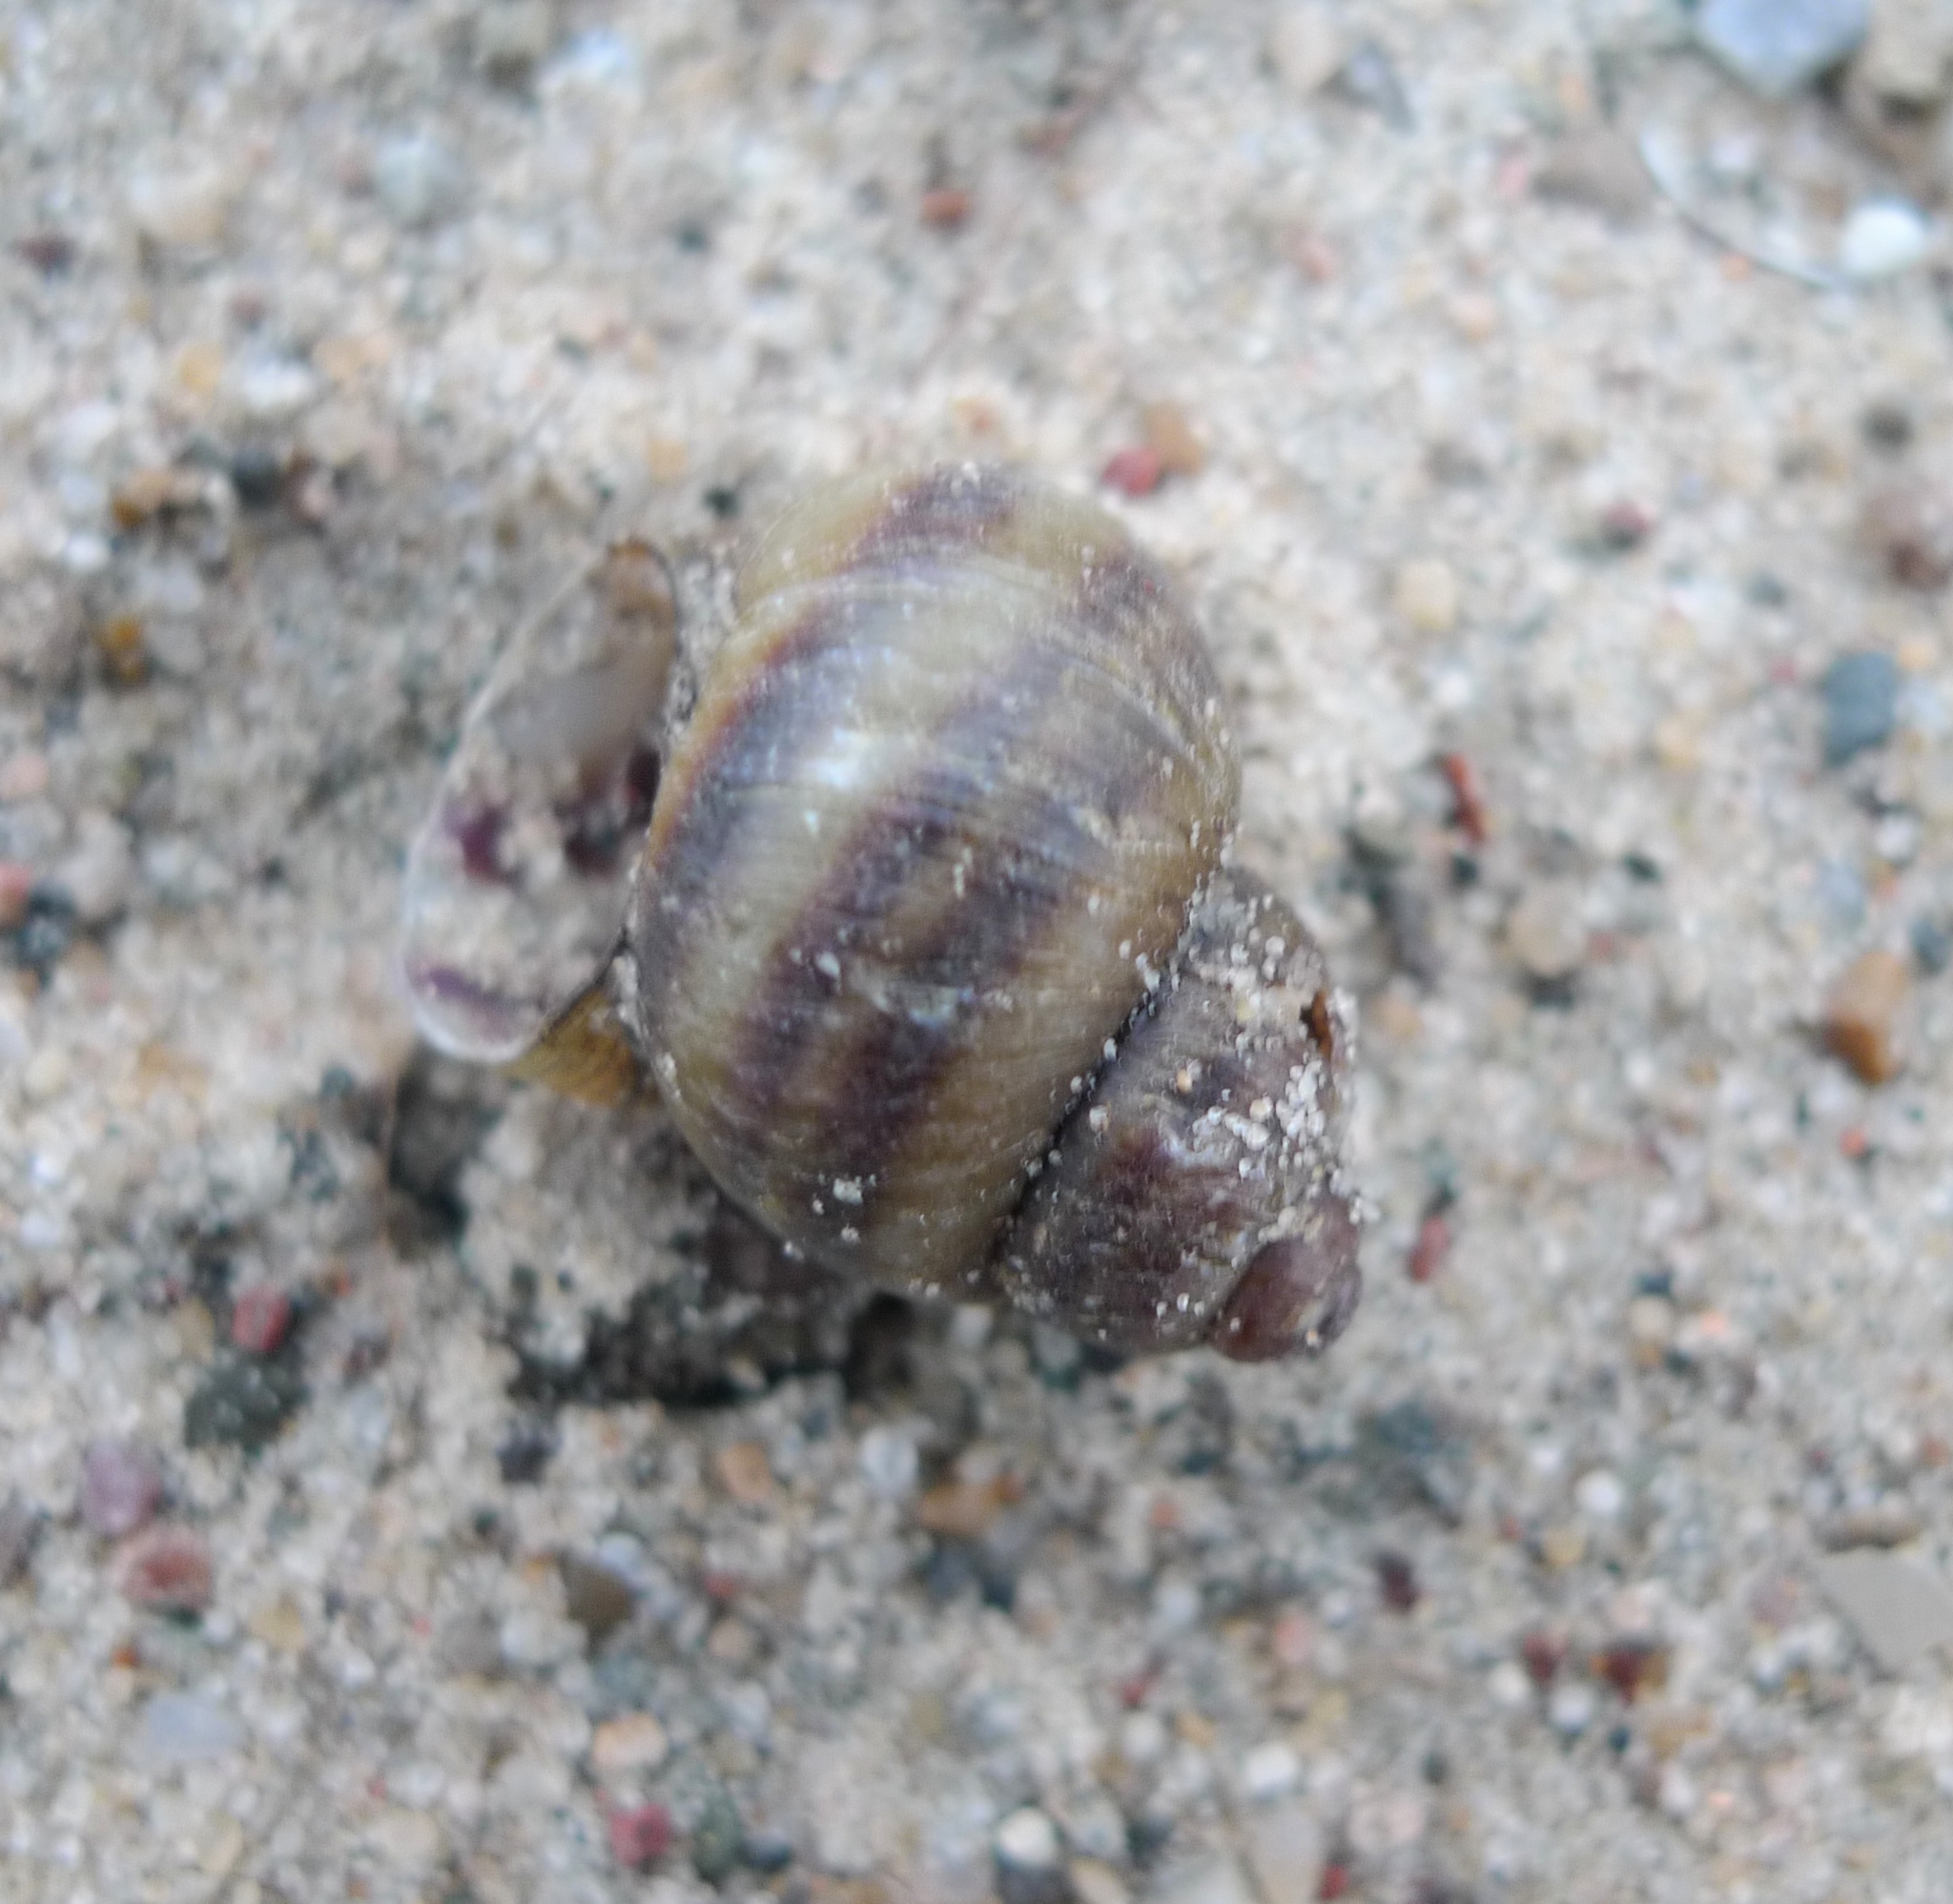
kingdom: Animalia
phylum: Mollusca
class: Gastropoda
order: Architaenioglossa
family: Viviparidae
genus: Viviparus
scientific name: Viviparus viviparus
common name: River snail
